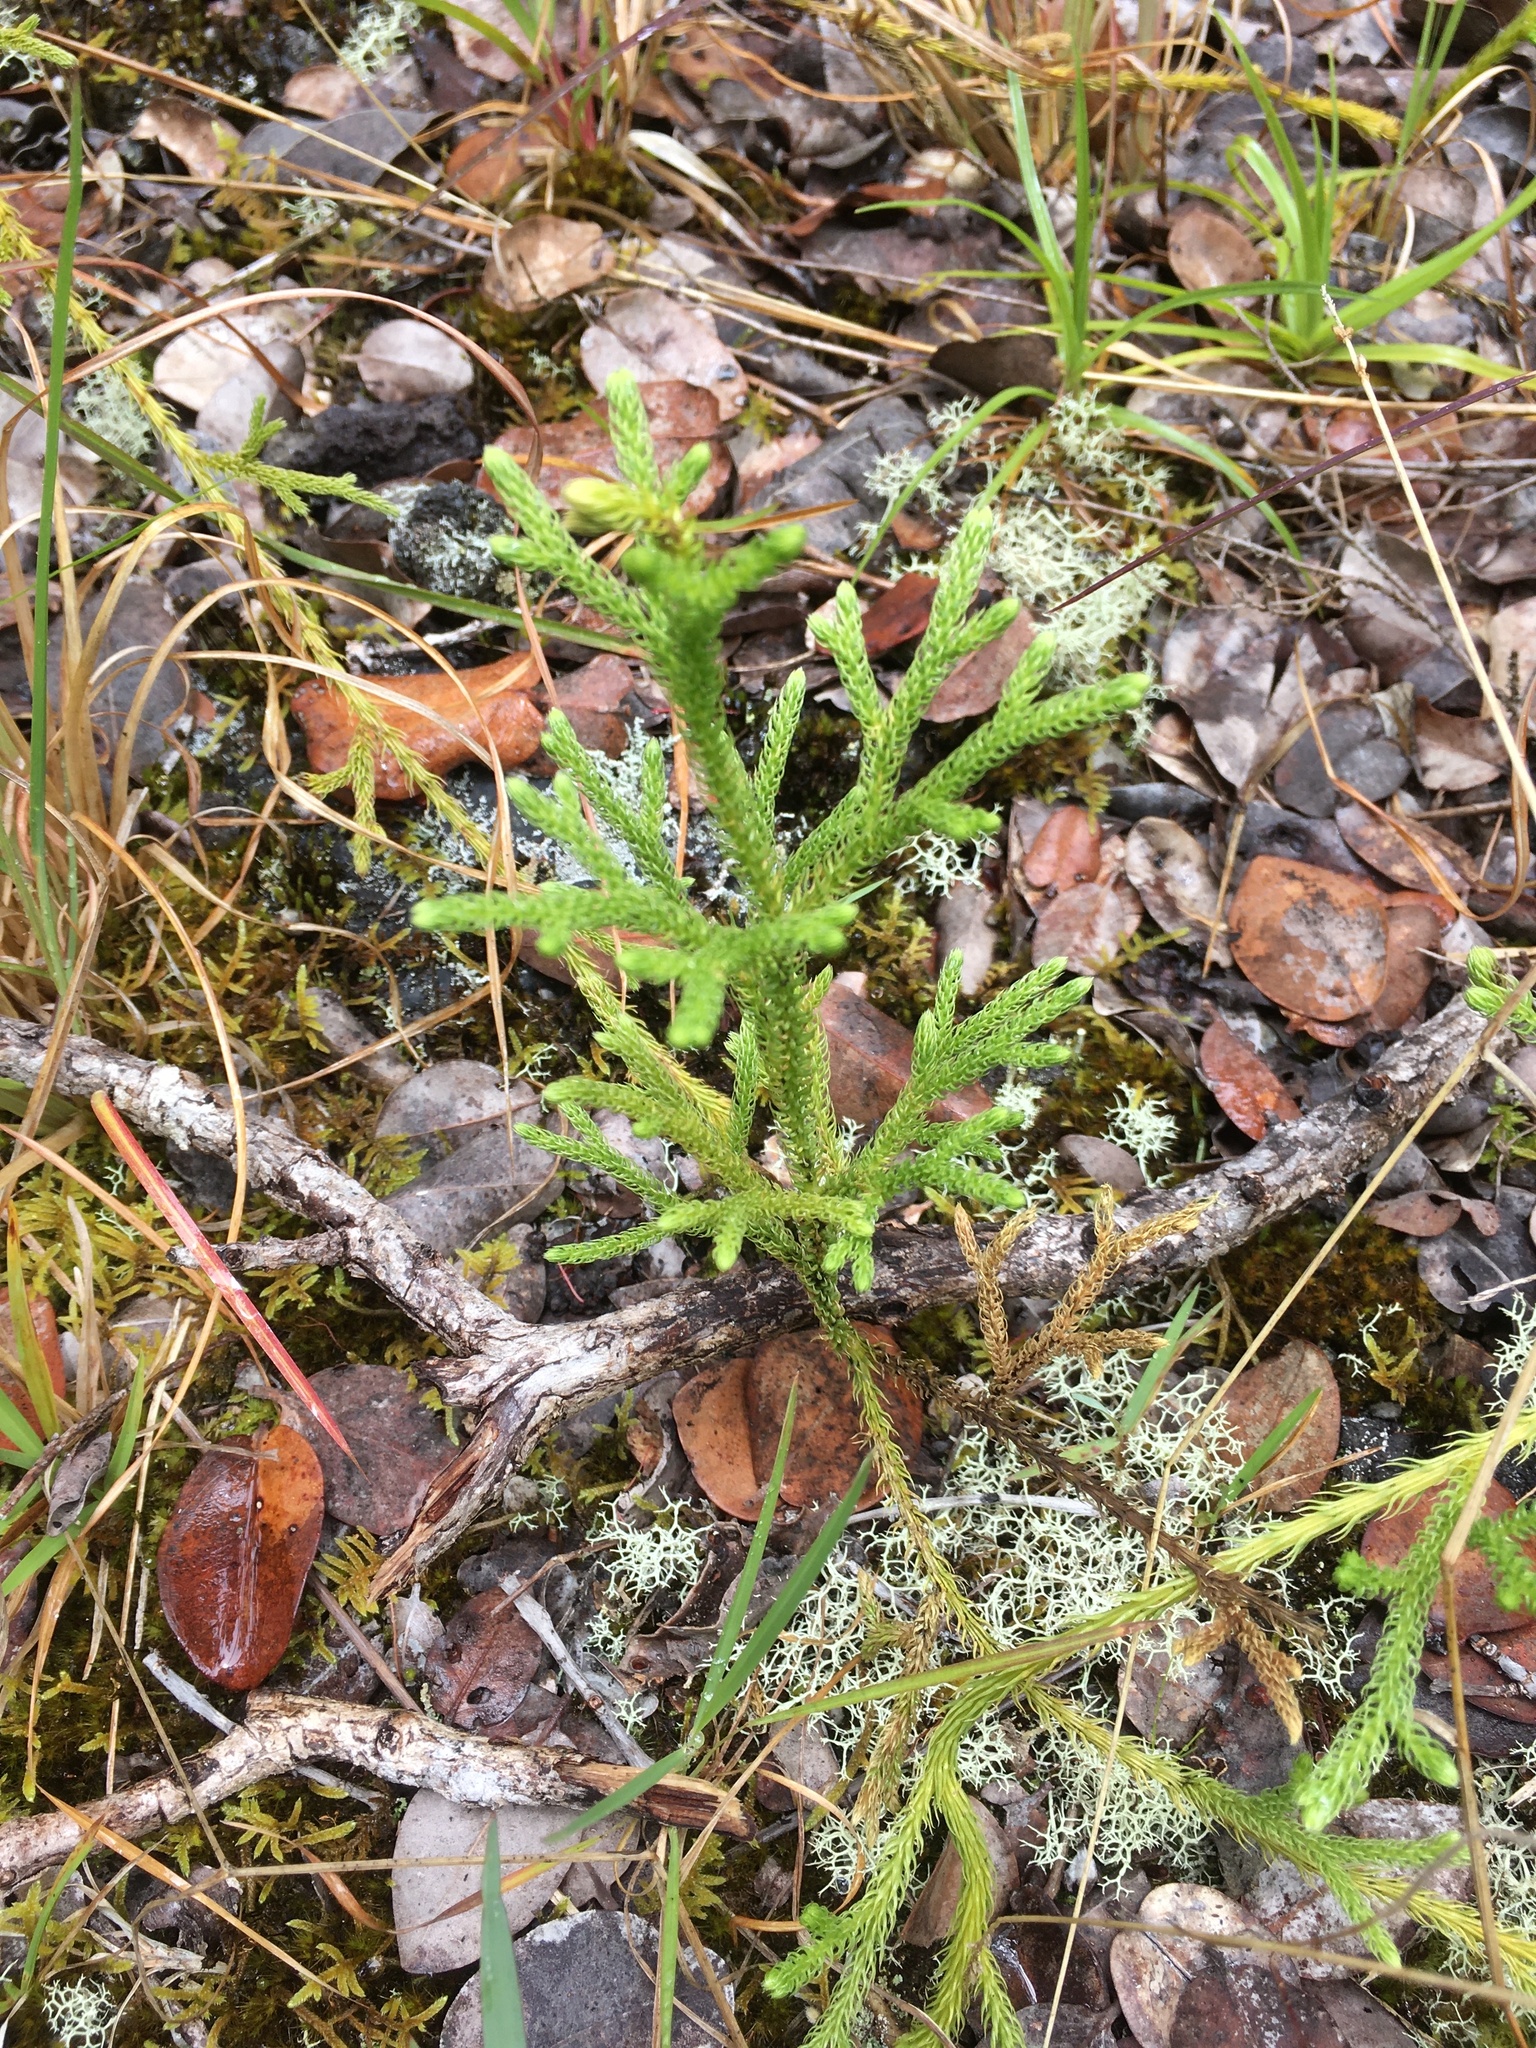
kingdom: Plantae
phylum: Tracheophyta
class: Lycopodiopsida
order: Lycopodiales
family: Lycopodiaceae
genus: Palhinhaea
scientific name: Palhinhaea cernua
